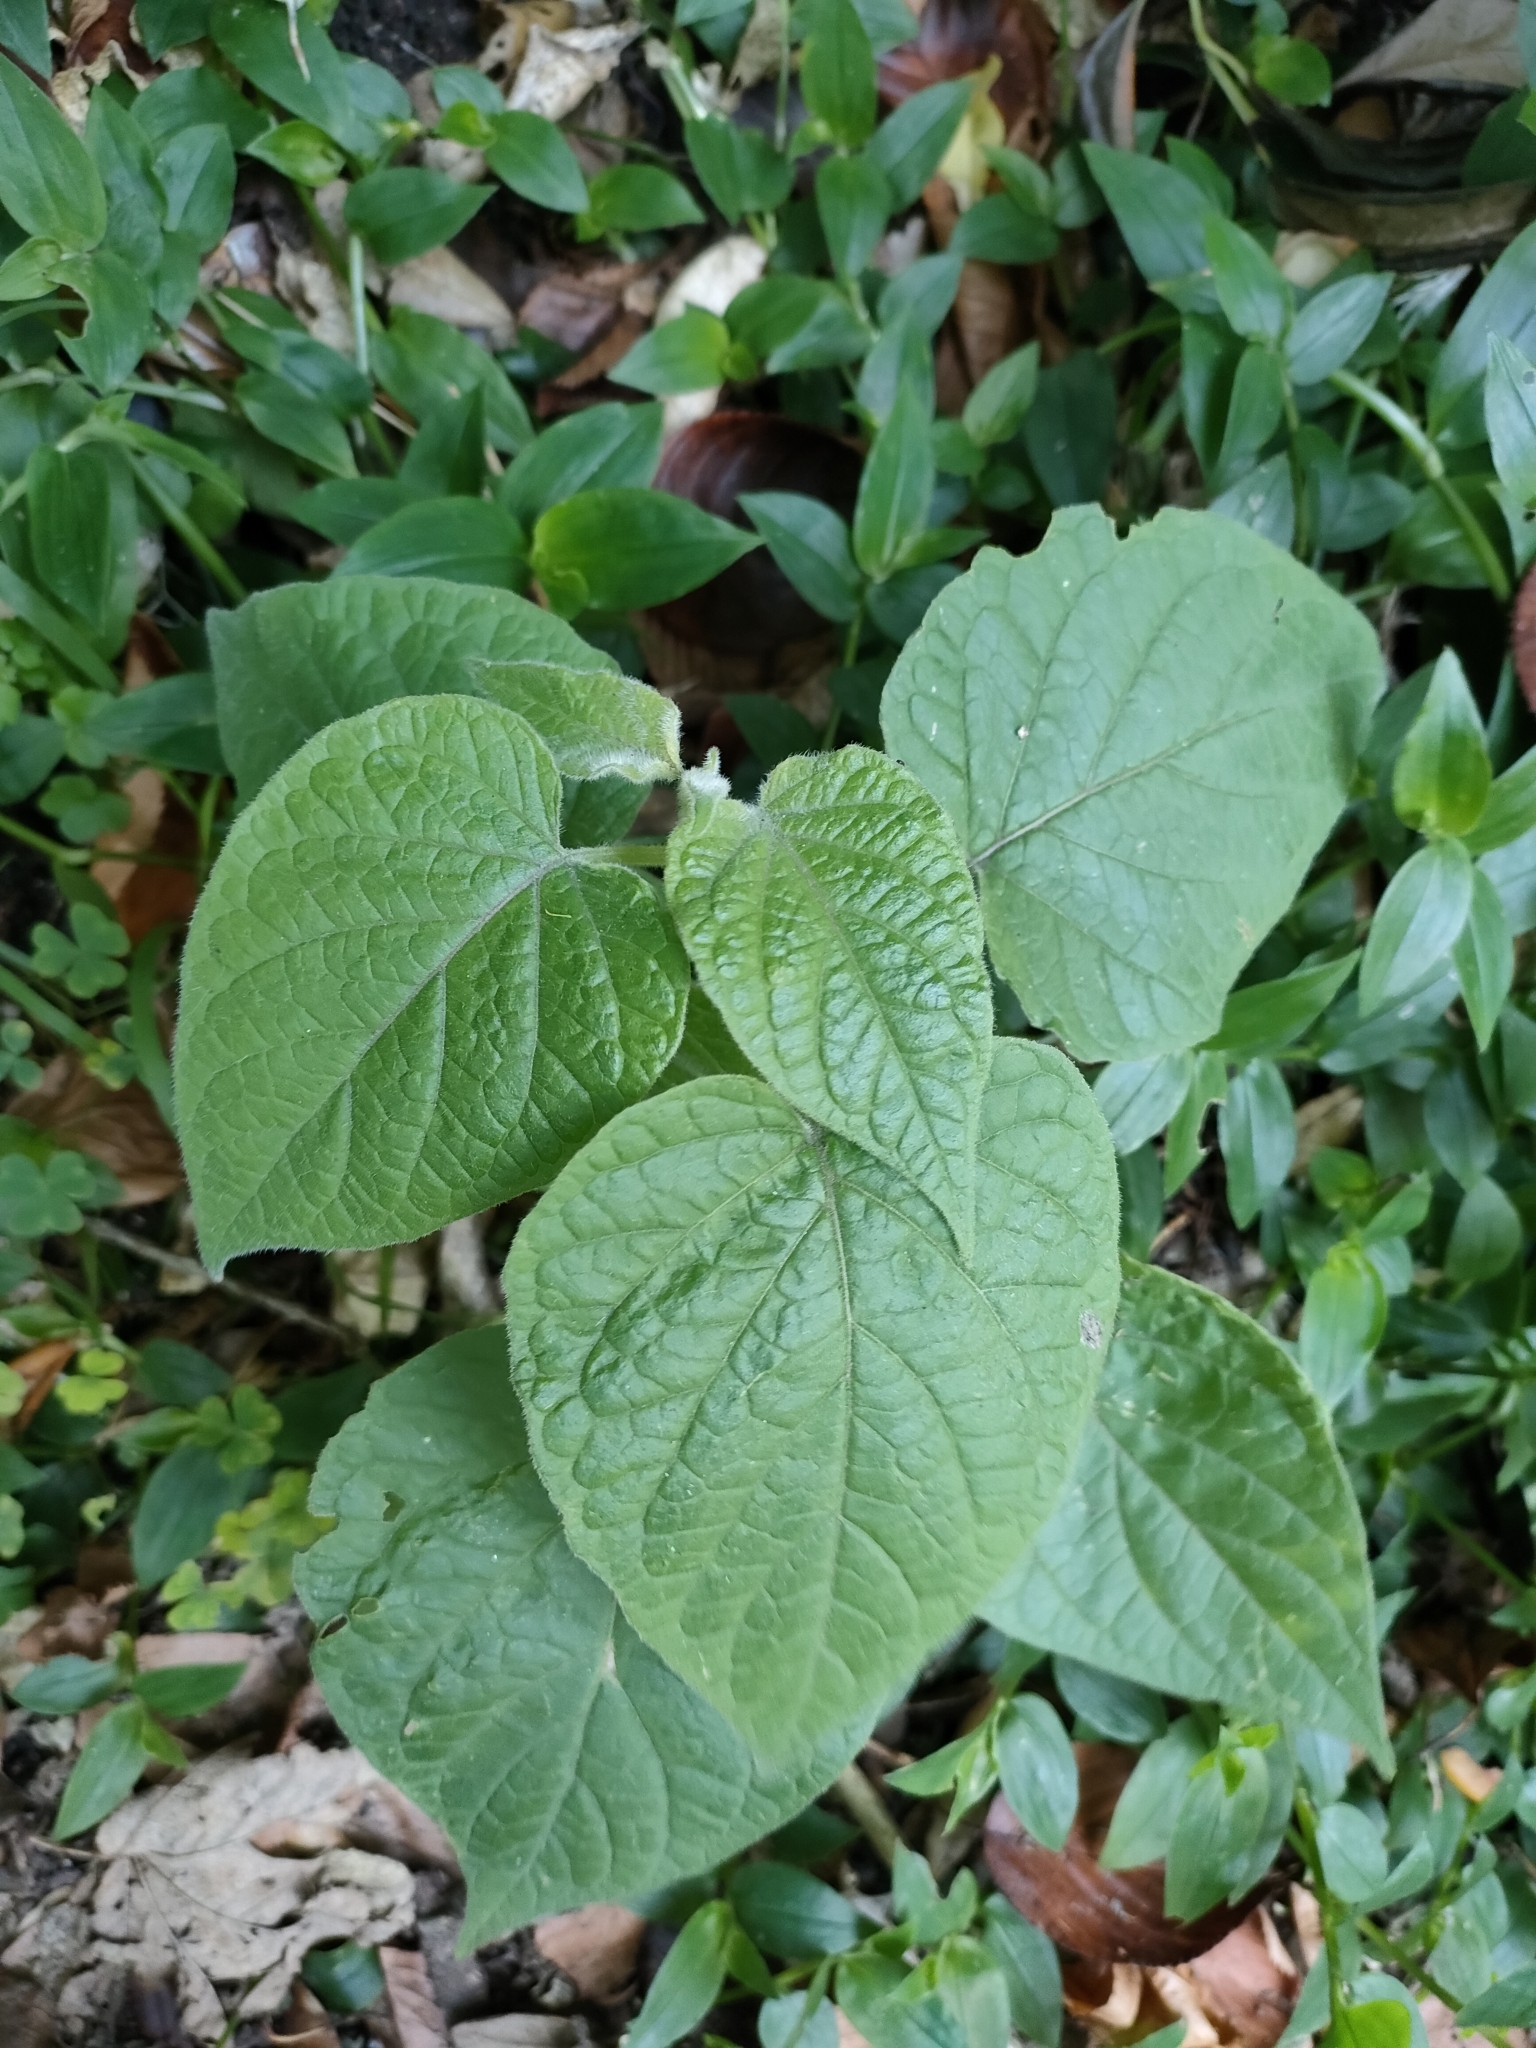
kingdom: Plantae
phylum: Tracheophyta
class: Magnoliopsida
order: Solanales
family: Solanaceae
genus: Physalis
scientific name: Physalis peruviana
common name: Cape-gooseberry
